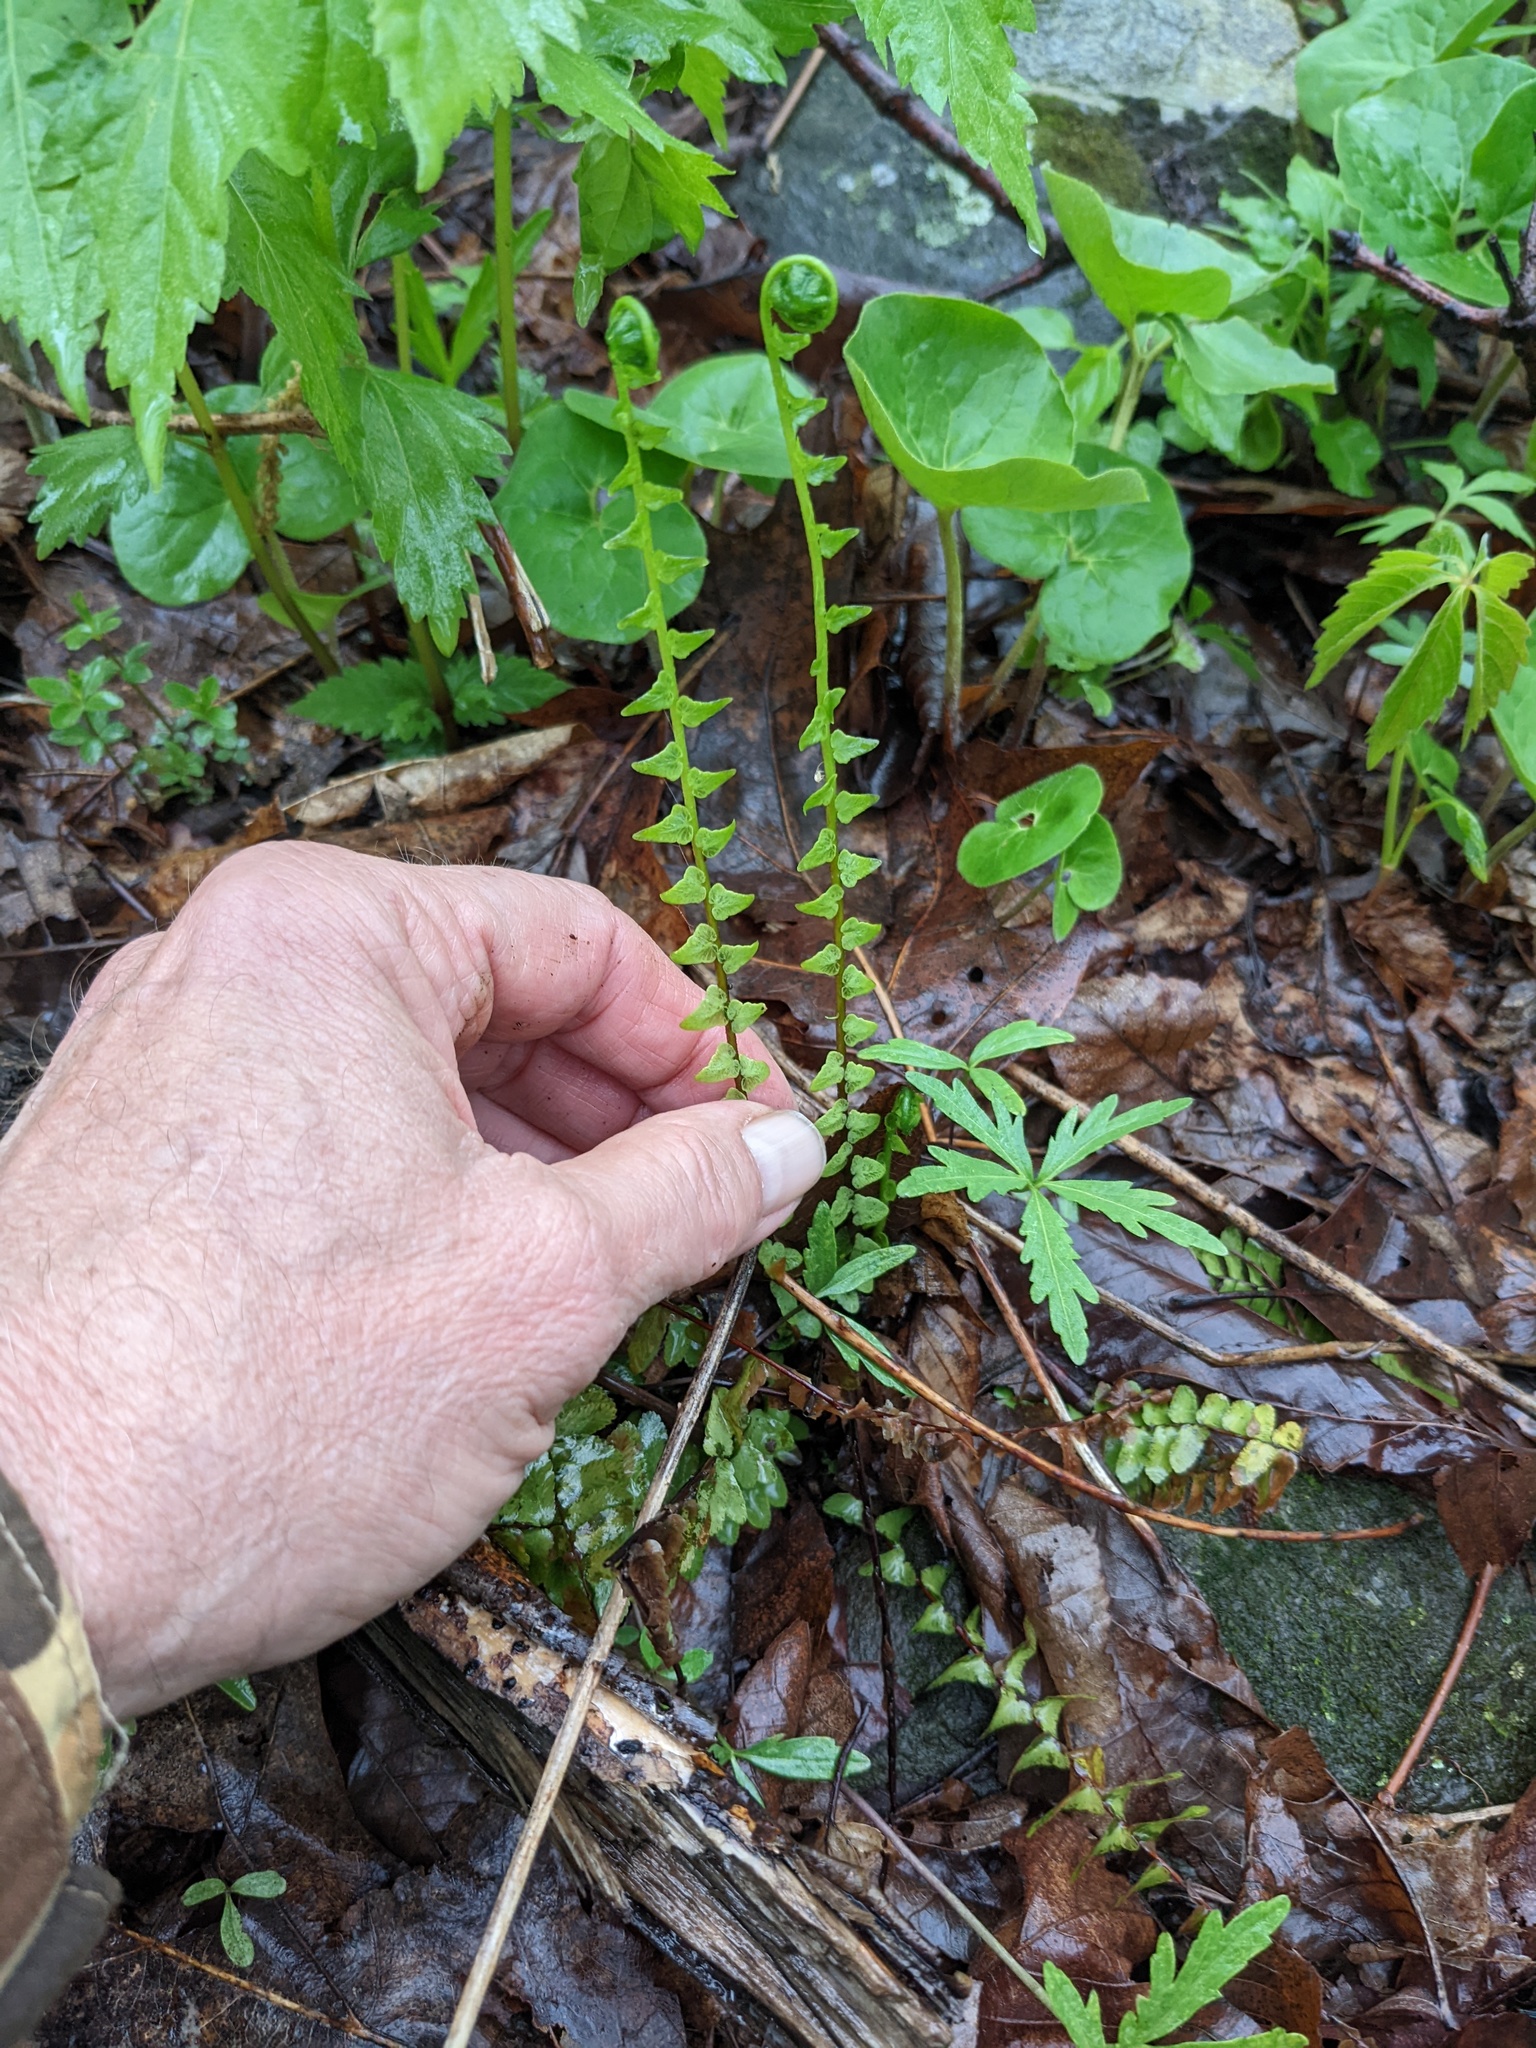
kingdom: Plantae
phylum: Tracheophyta
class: Polypodiopsida
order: Polypodiales
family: Aspleniaceae
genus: Asplenium
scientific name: Asplenium platyneuron
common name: Ebony spleenwort
